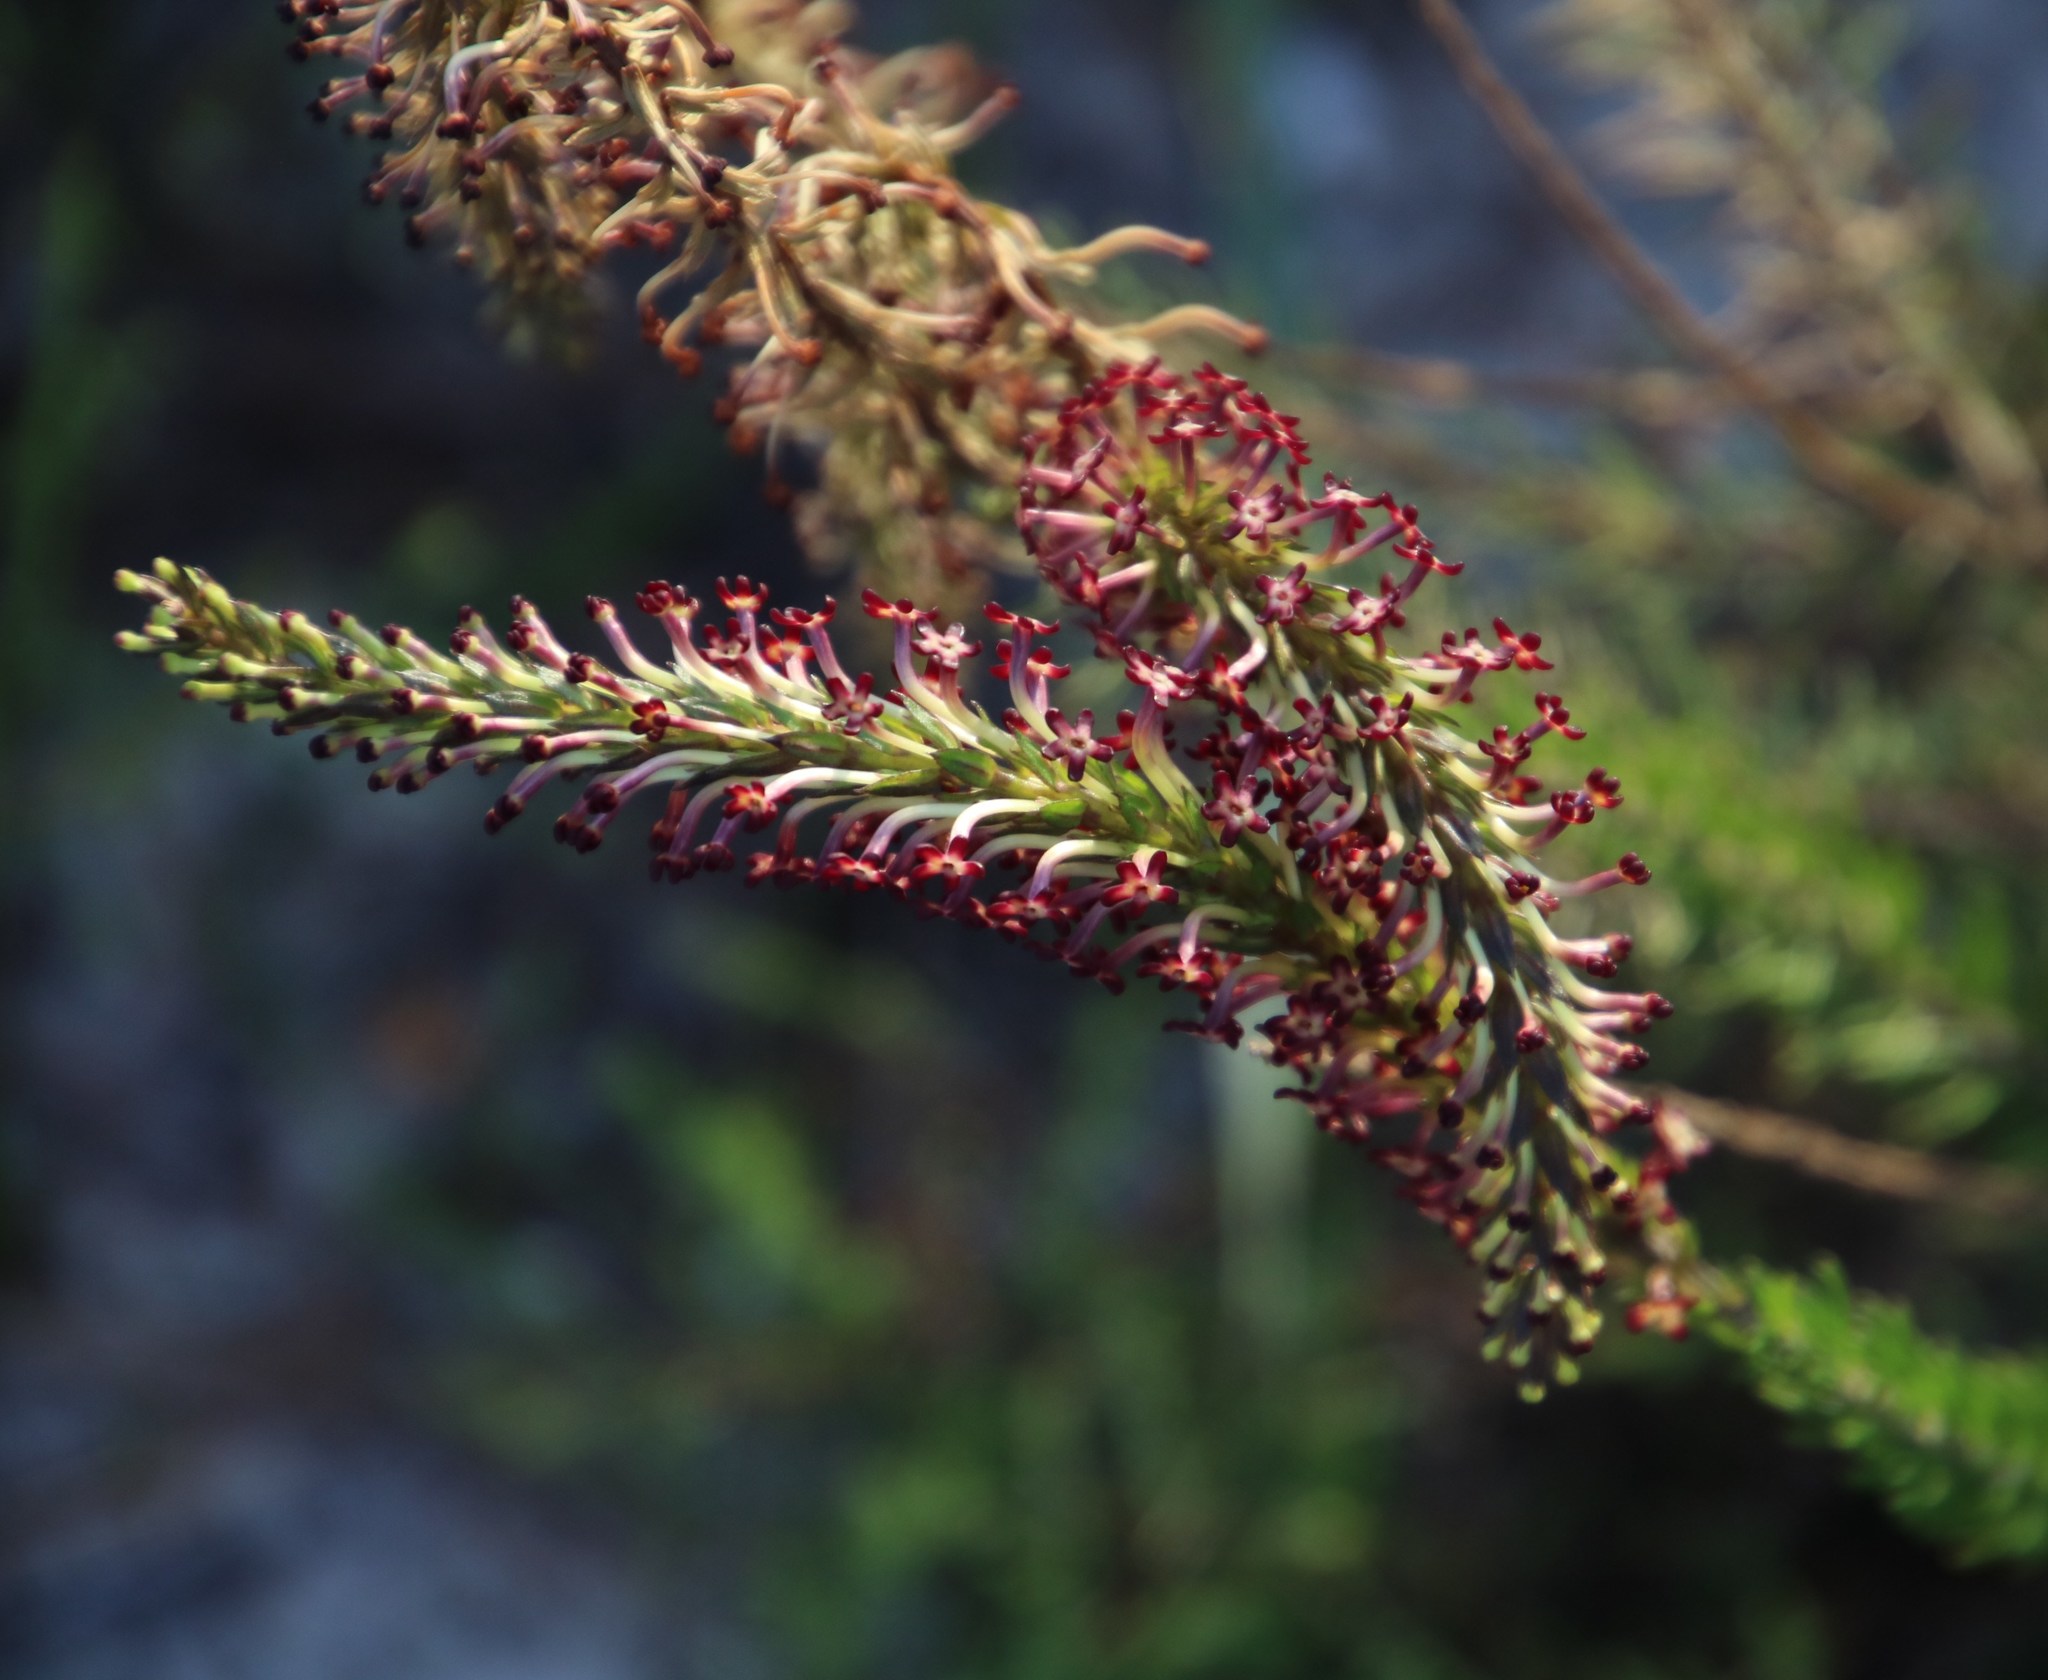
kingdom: Plantae
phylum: Tracheophyta
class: Magnoliopsida
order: Lamiales
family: Scrophulariaceae
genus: Microdon
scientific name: Microdon dubius
